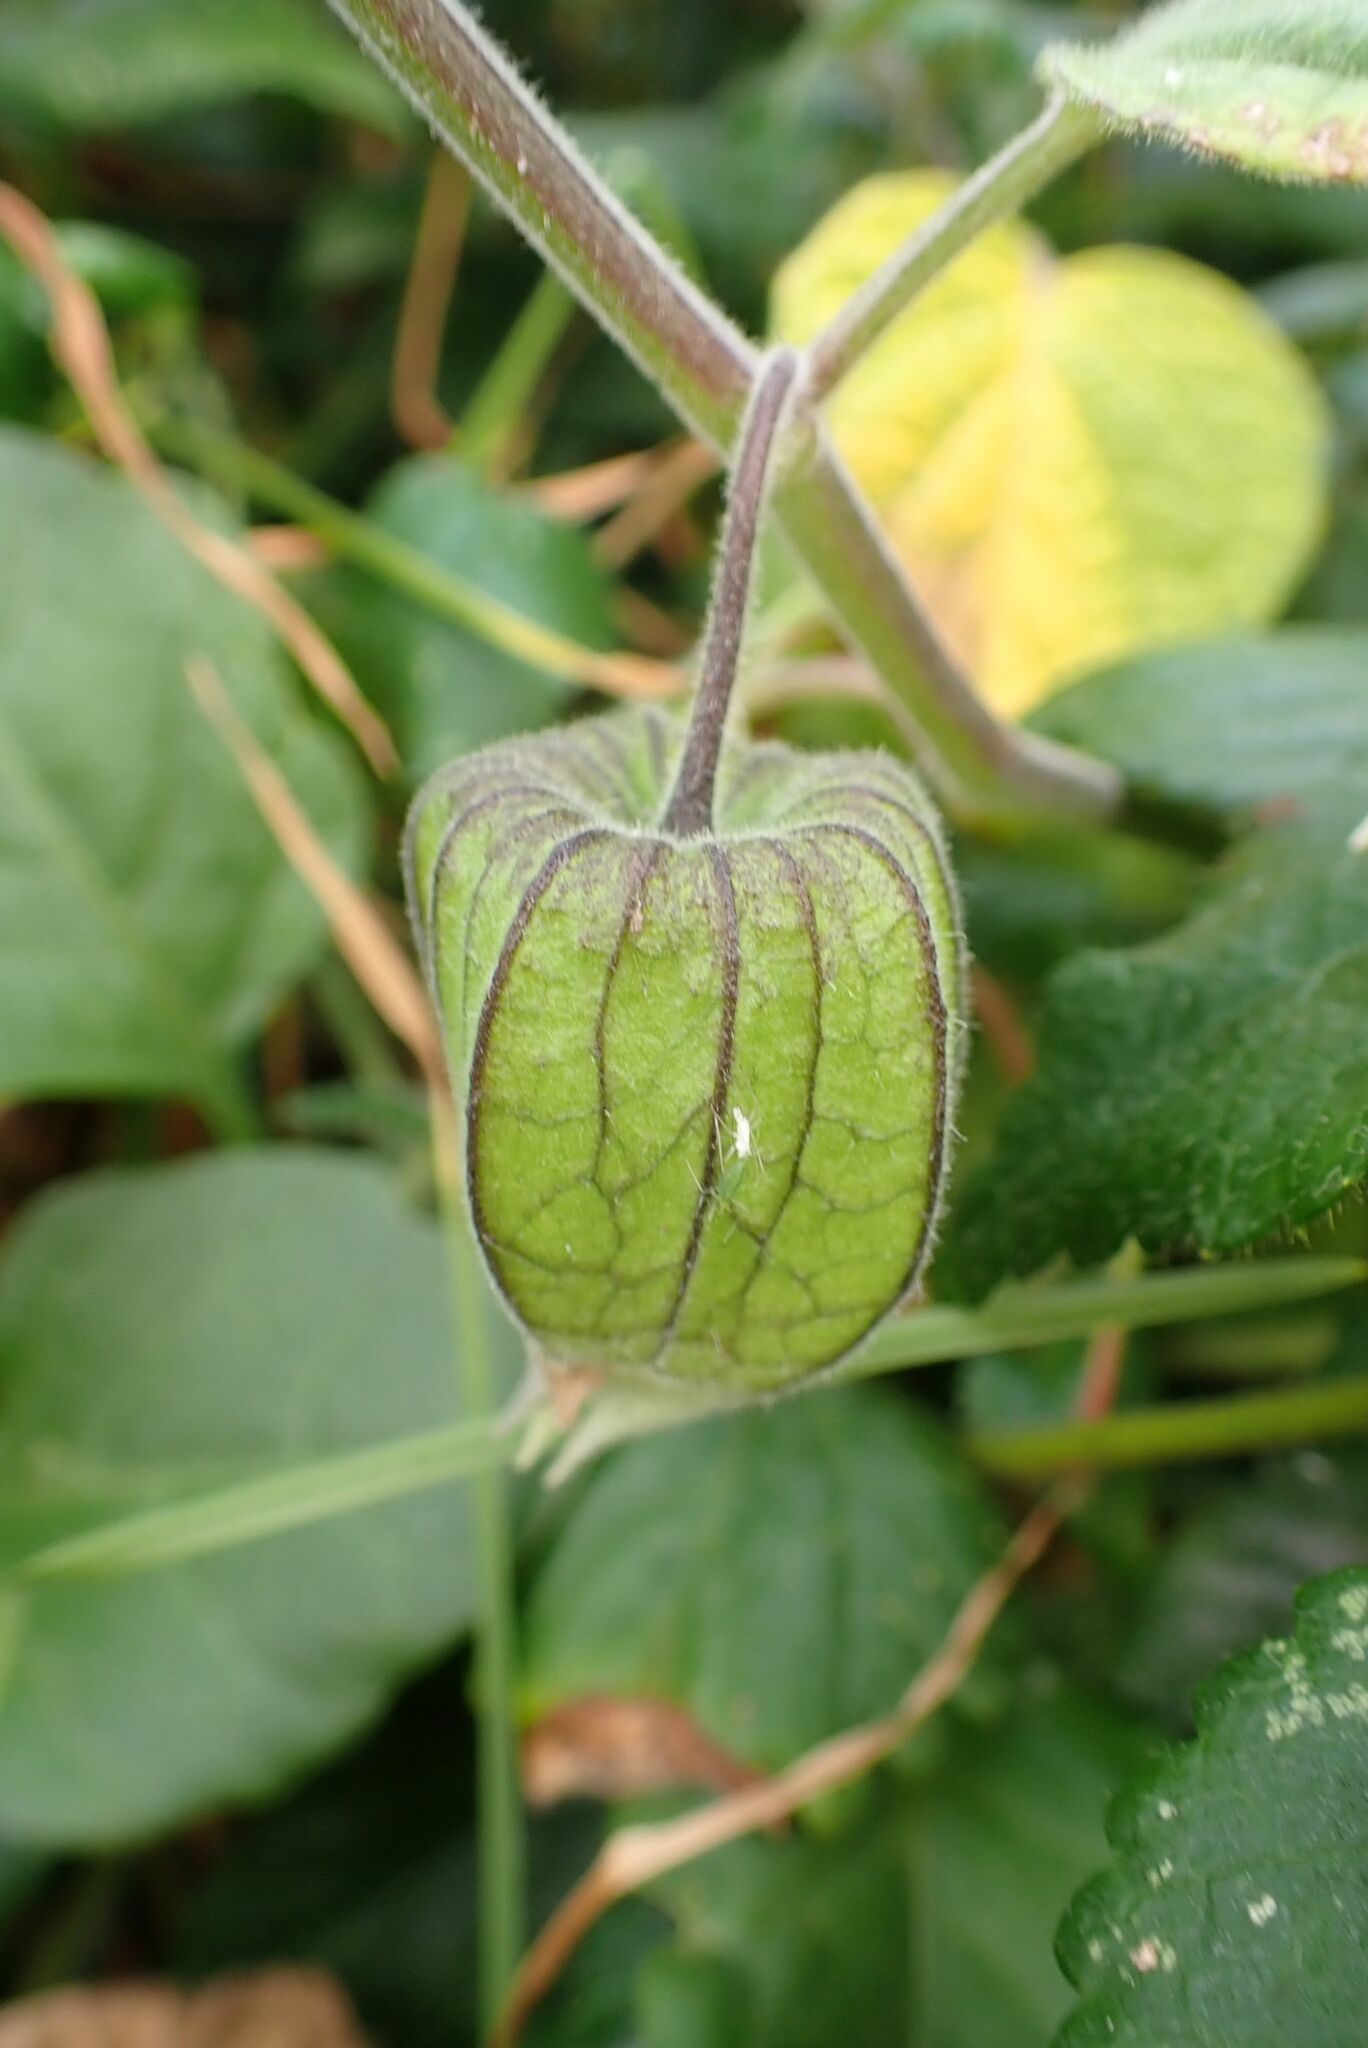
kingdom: Plantae
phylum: Tracheophyta
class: Magnoliopsida
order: Solanales
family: Solanaceae
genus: Physalis
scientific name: Physalis peruviana
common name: Cape-gooseberry
